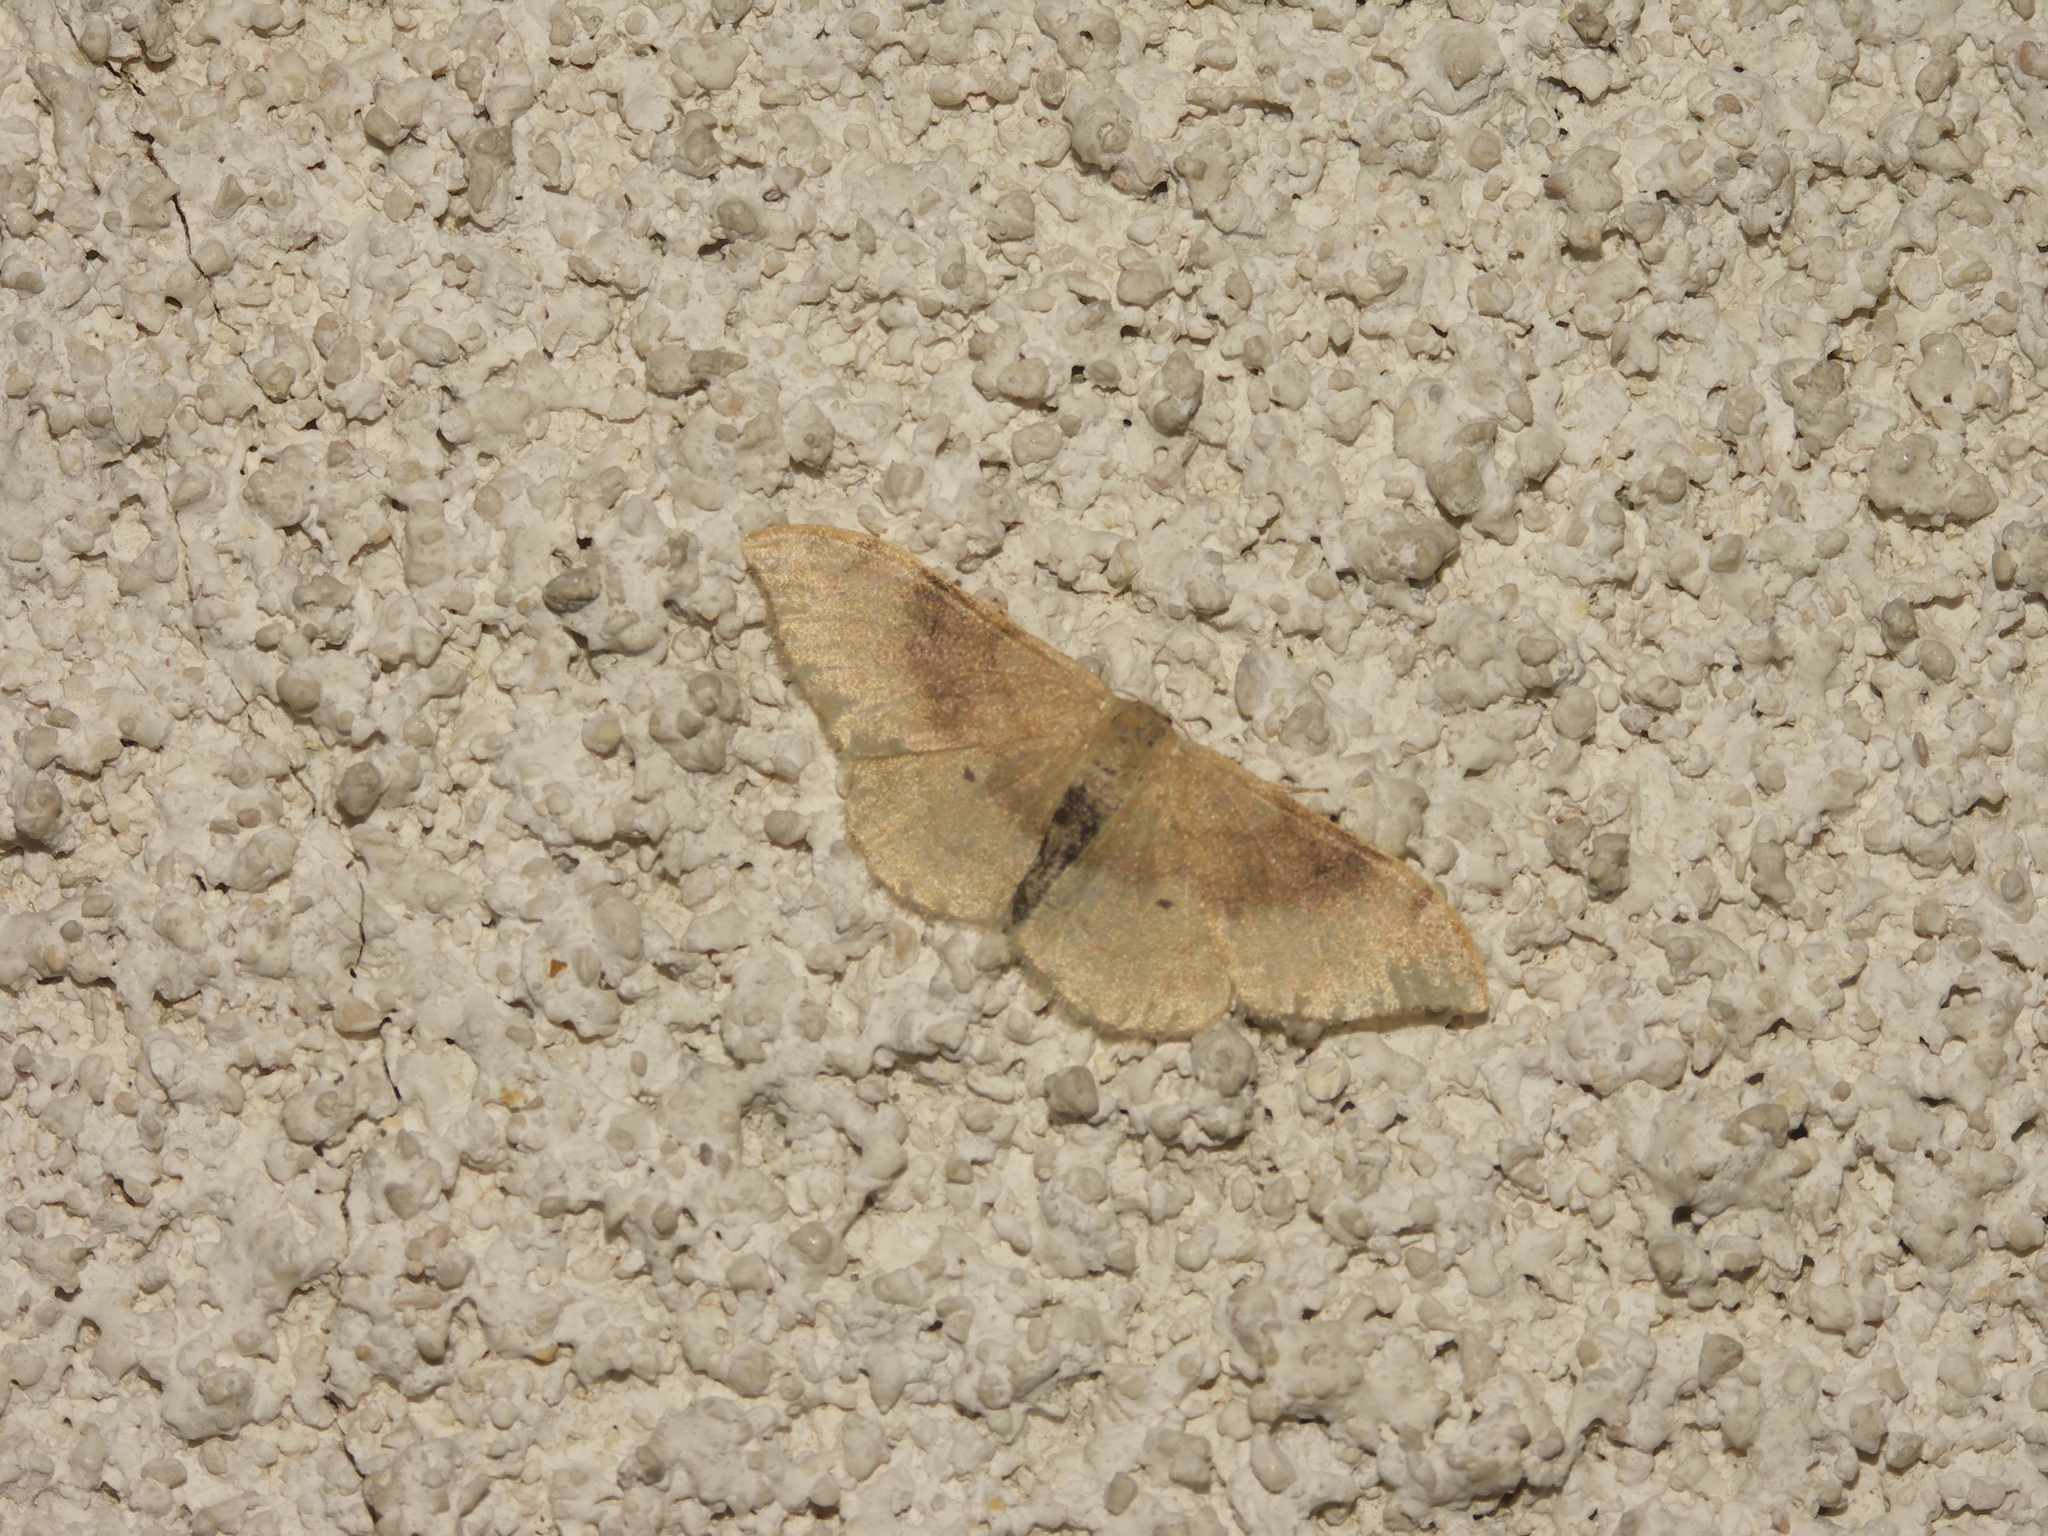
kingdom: Animalia
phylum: Arthropoda
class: Insecta
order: Lepidoptera
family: Geometridae
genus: Idaea
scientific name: Idaea degeneraria
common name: Portland ribbon wave
